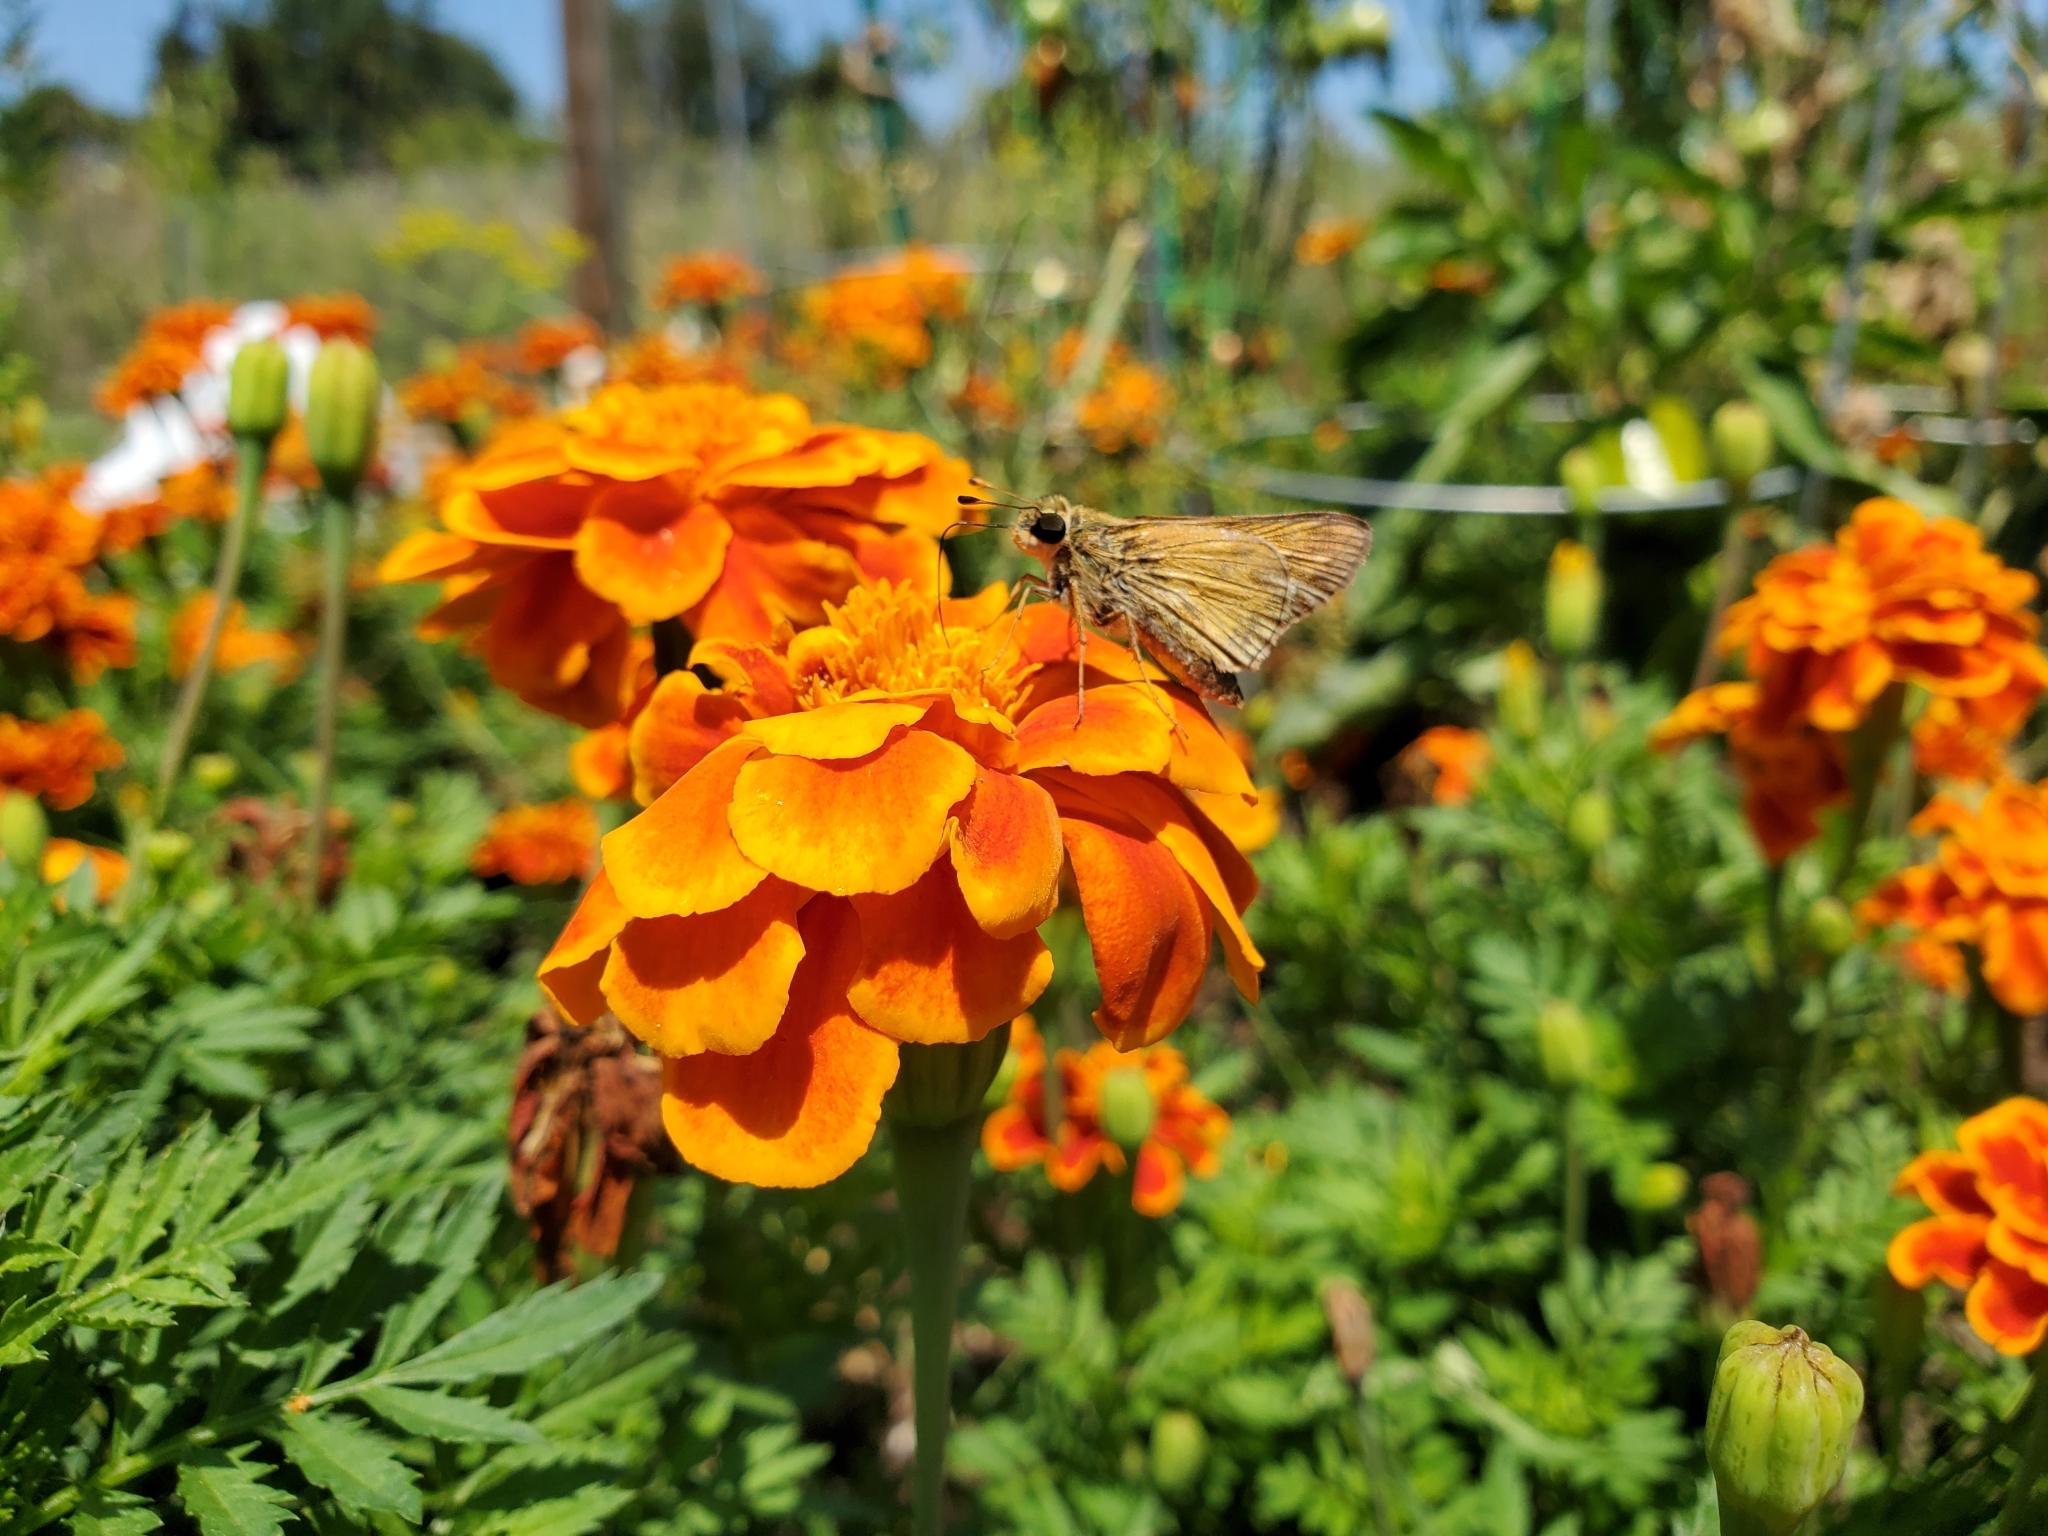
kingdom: Animalia
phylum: Arthropoda
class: Insecta
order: Lepidoptera
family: Hesperiidae
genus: Atalopedes
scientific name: Atalopedes
